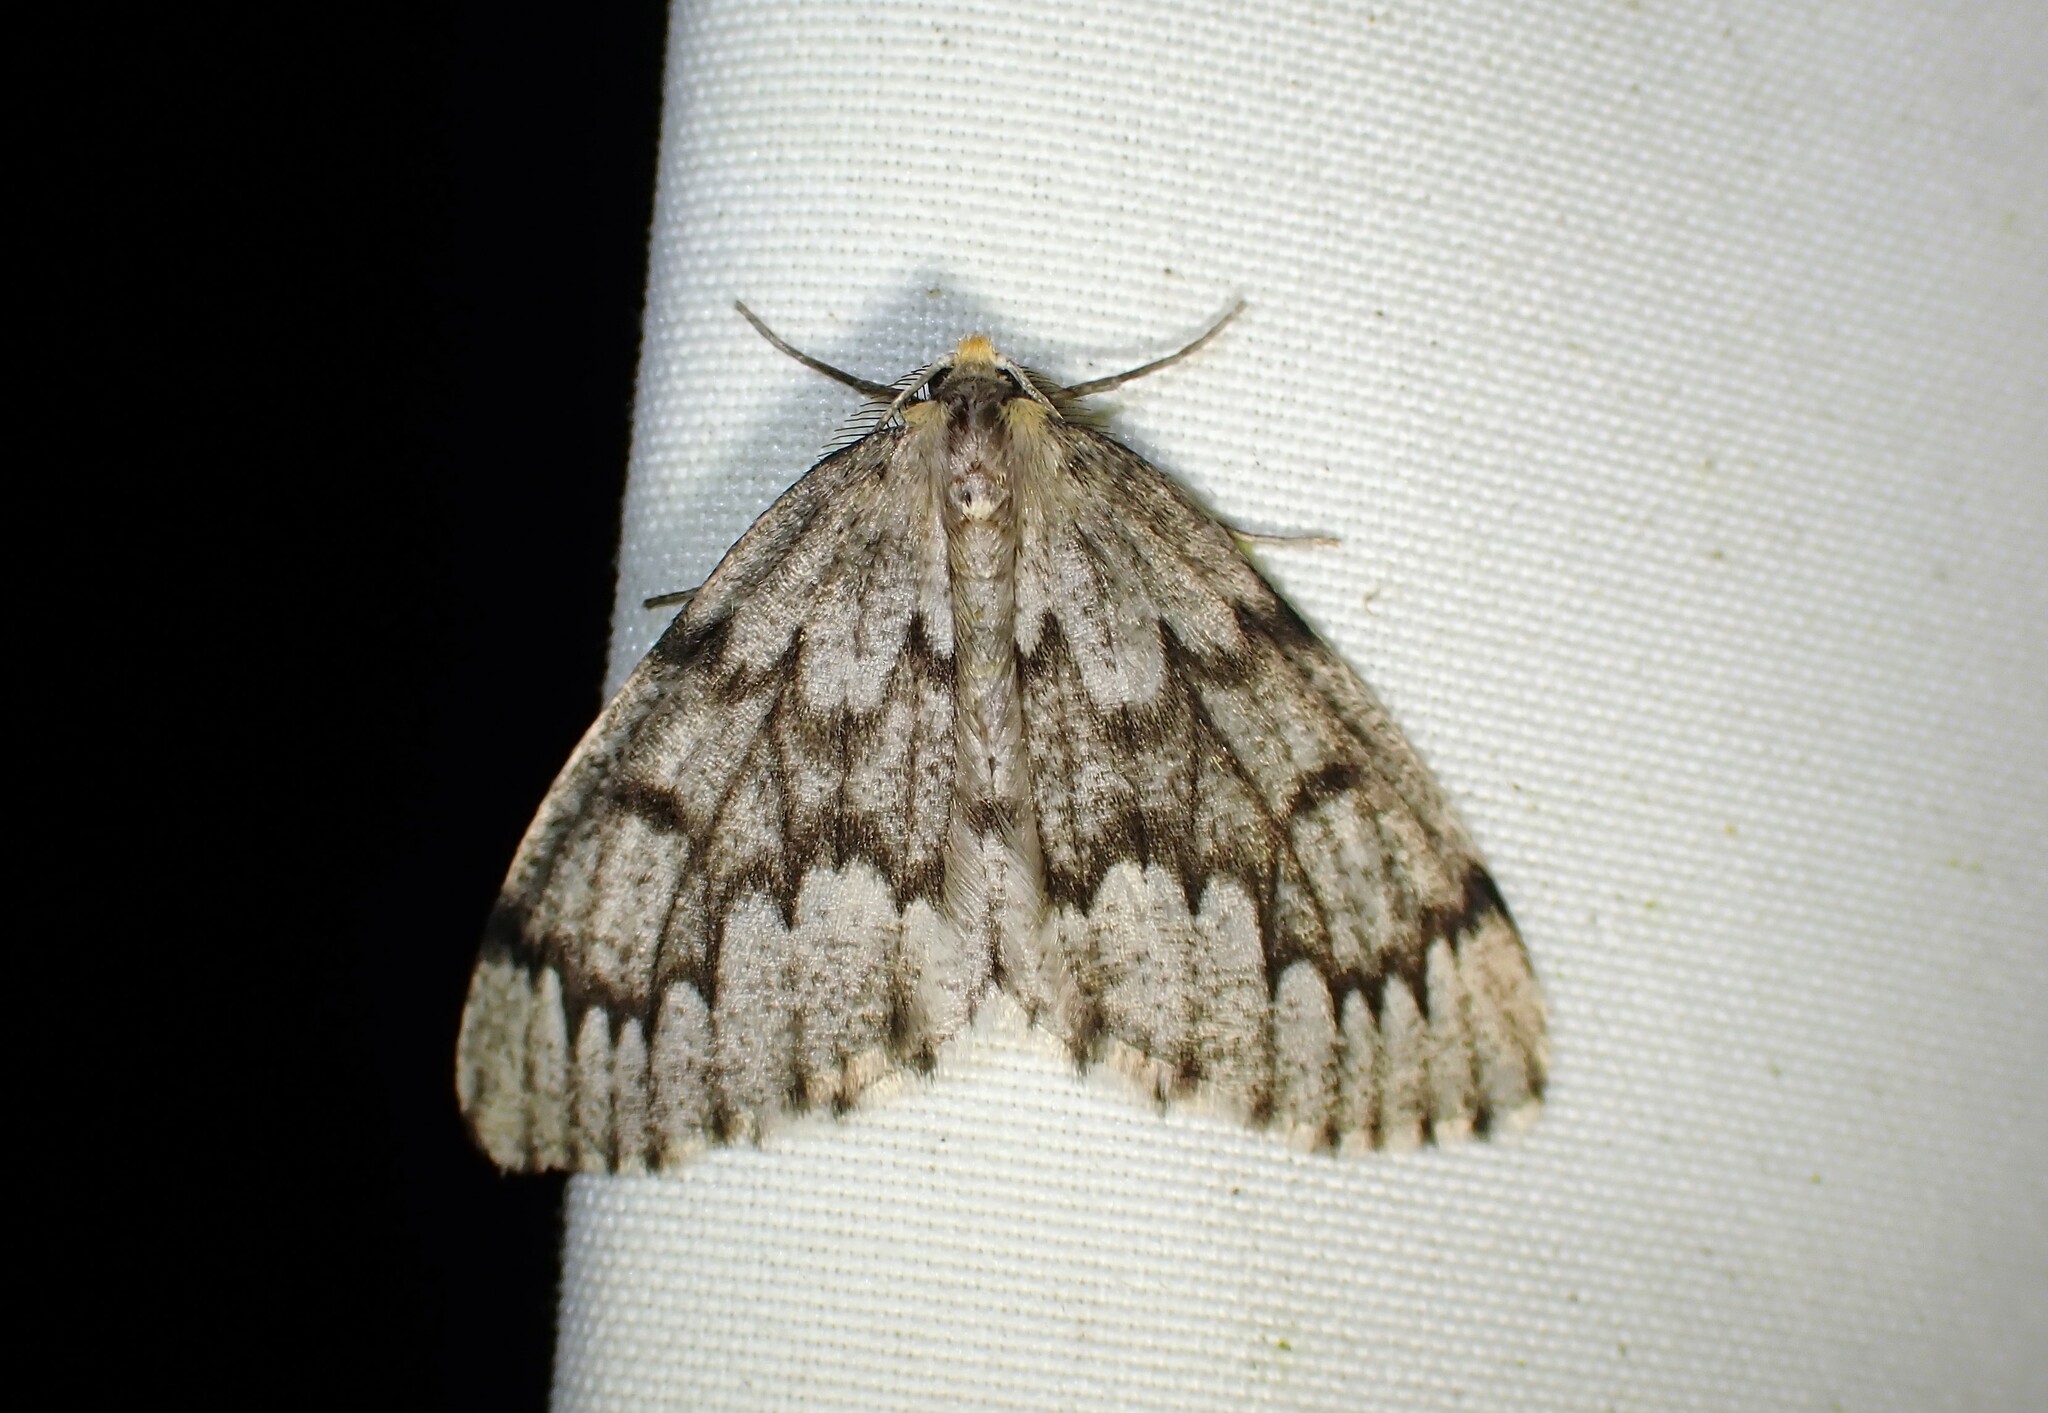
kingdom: Animalia
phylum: Arthropoda
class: Insecta
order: Lepidoptera
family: Geometridae
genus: Nepytia
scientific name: Nepytia canosaria
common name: False hemlock looper
